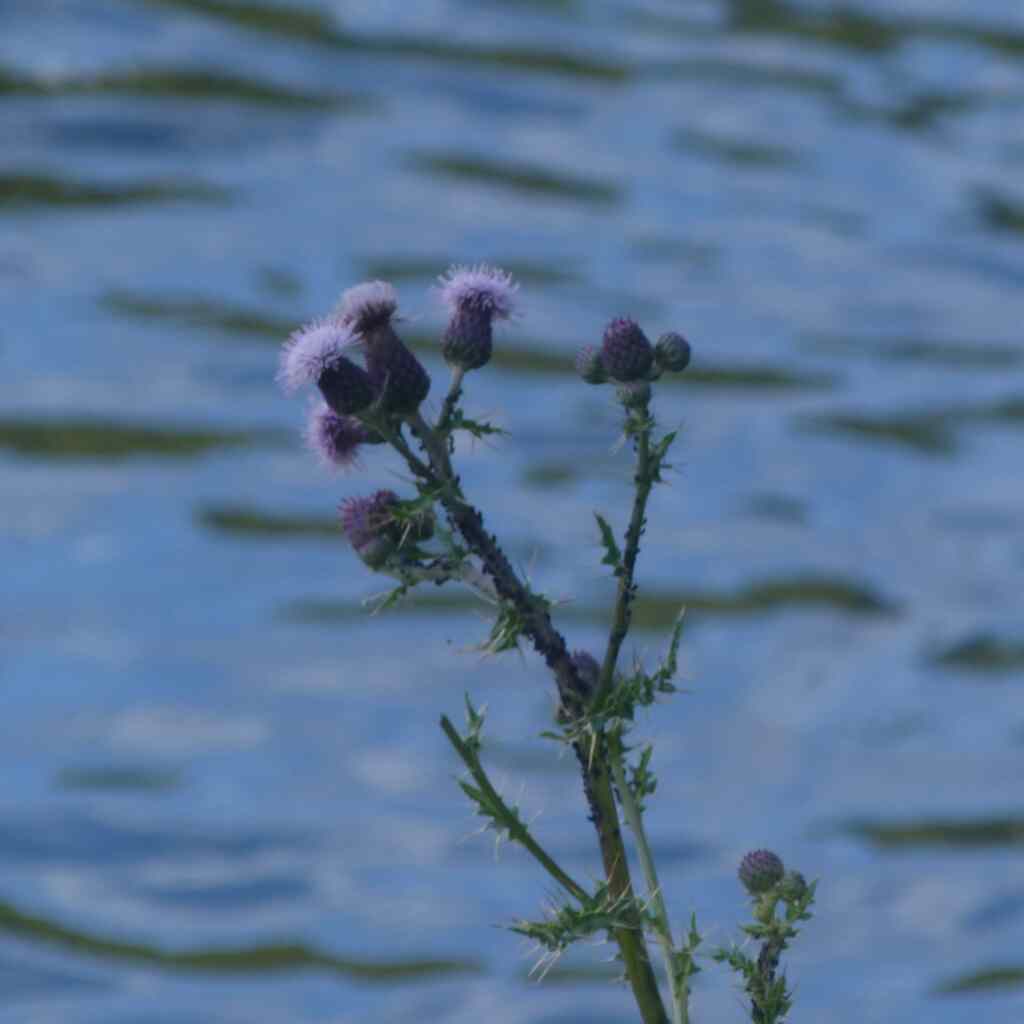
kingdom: Plantae
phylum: Tracheophyta
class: Magnoliopsida
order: Asterales
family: Asteraceae
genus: Cirsium
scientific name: Cirsium arvense
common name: Creeping thistle
